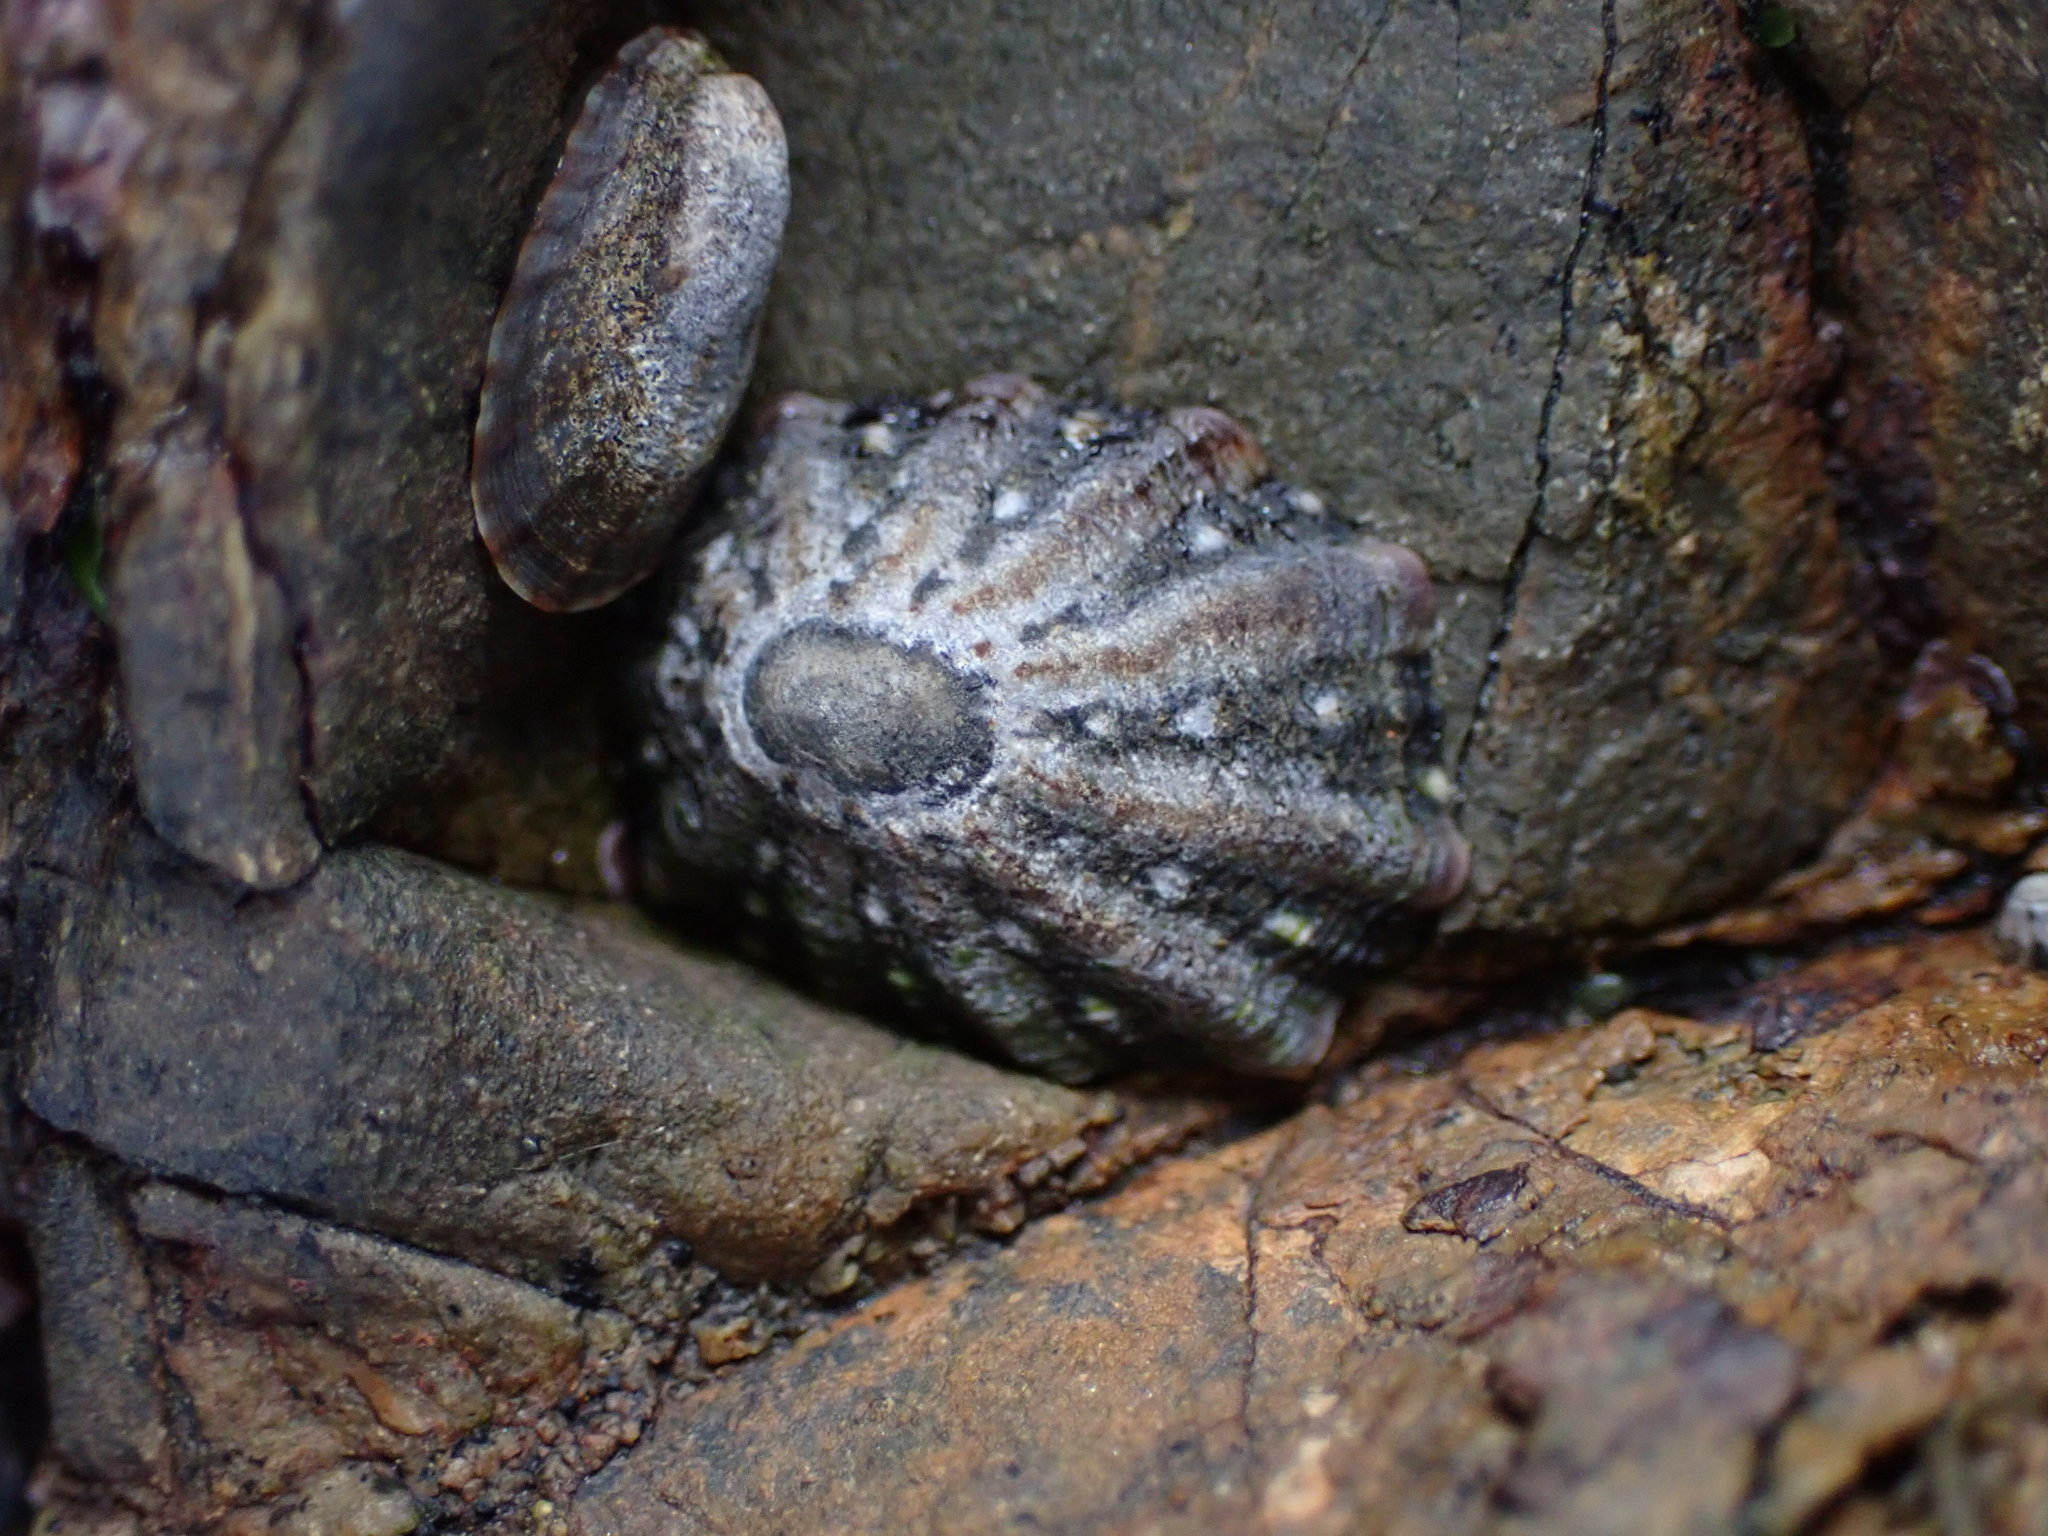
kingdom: Animalia
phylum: Mollusca
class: Gastropoda
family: Nacellidae
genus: Cellana
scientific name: Cellana ornata
